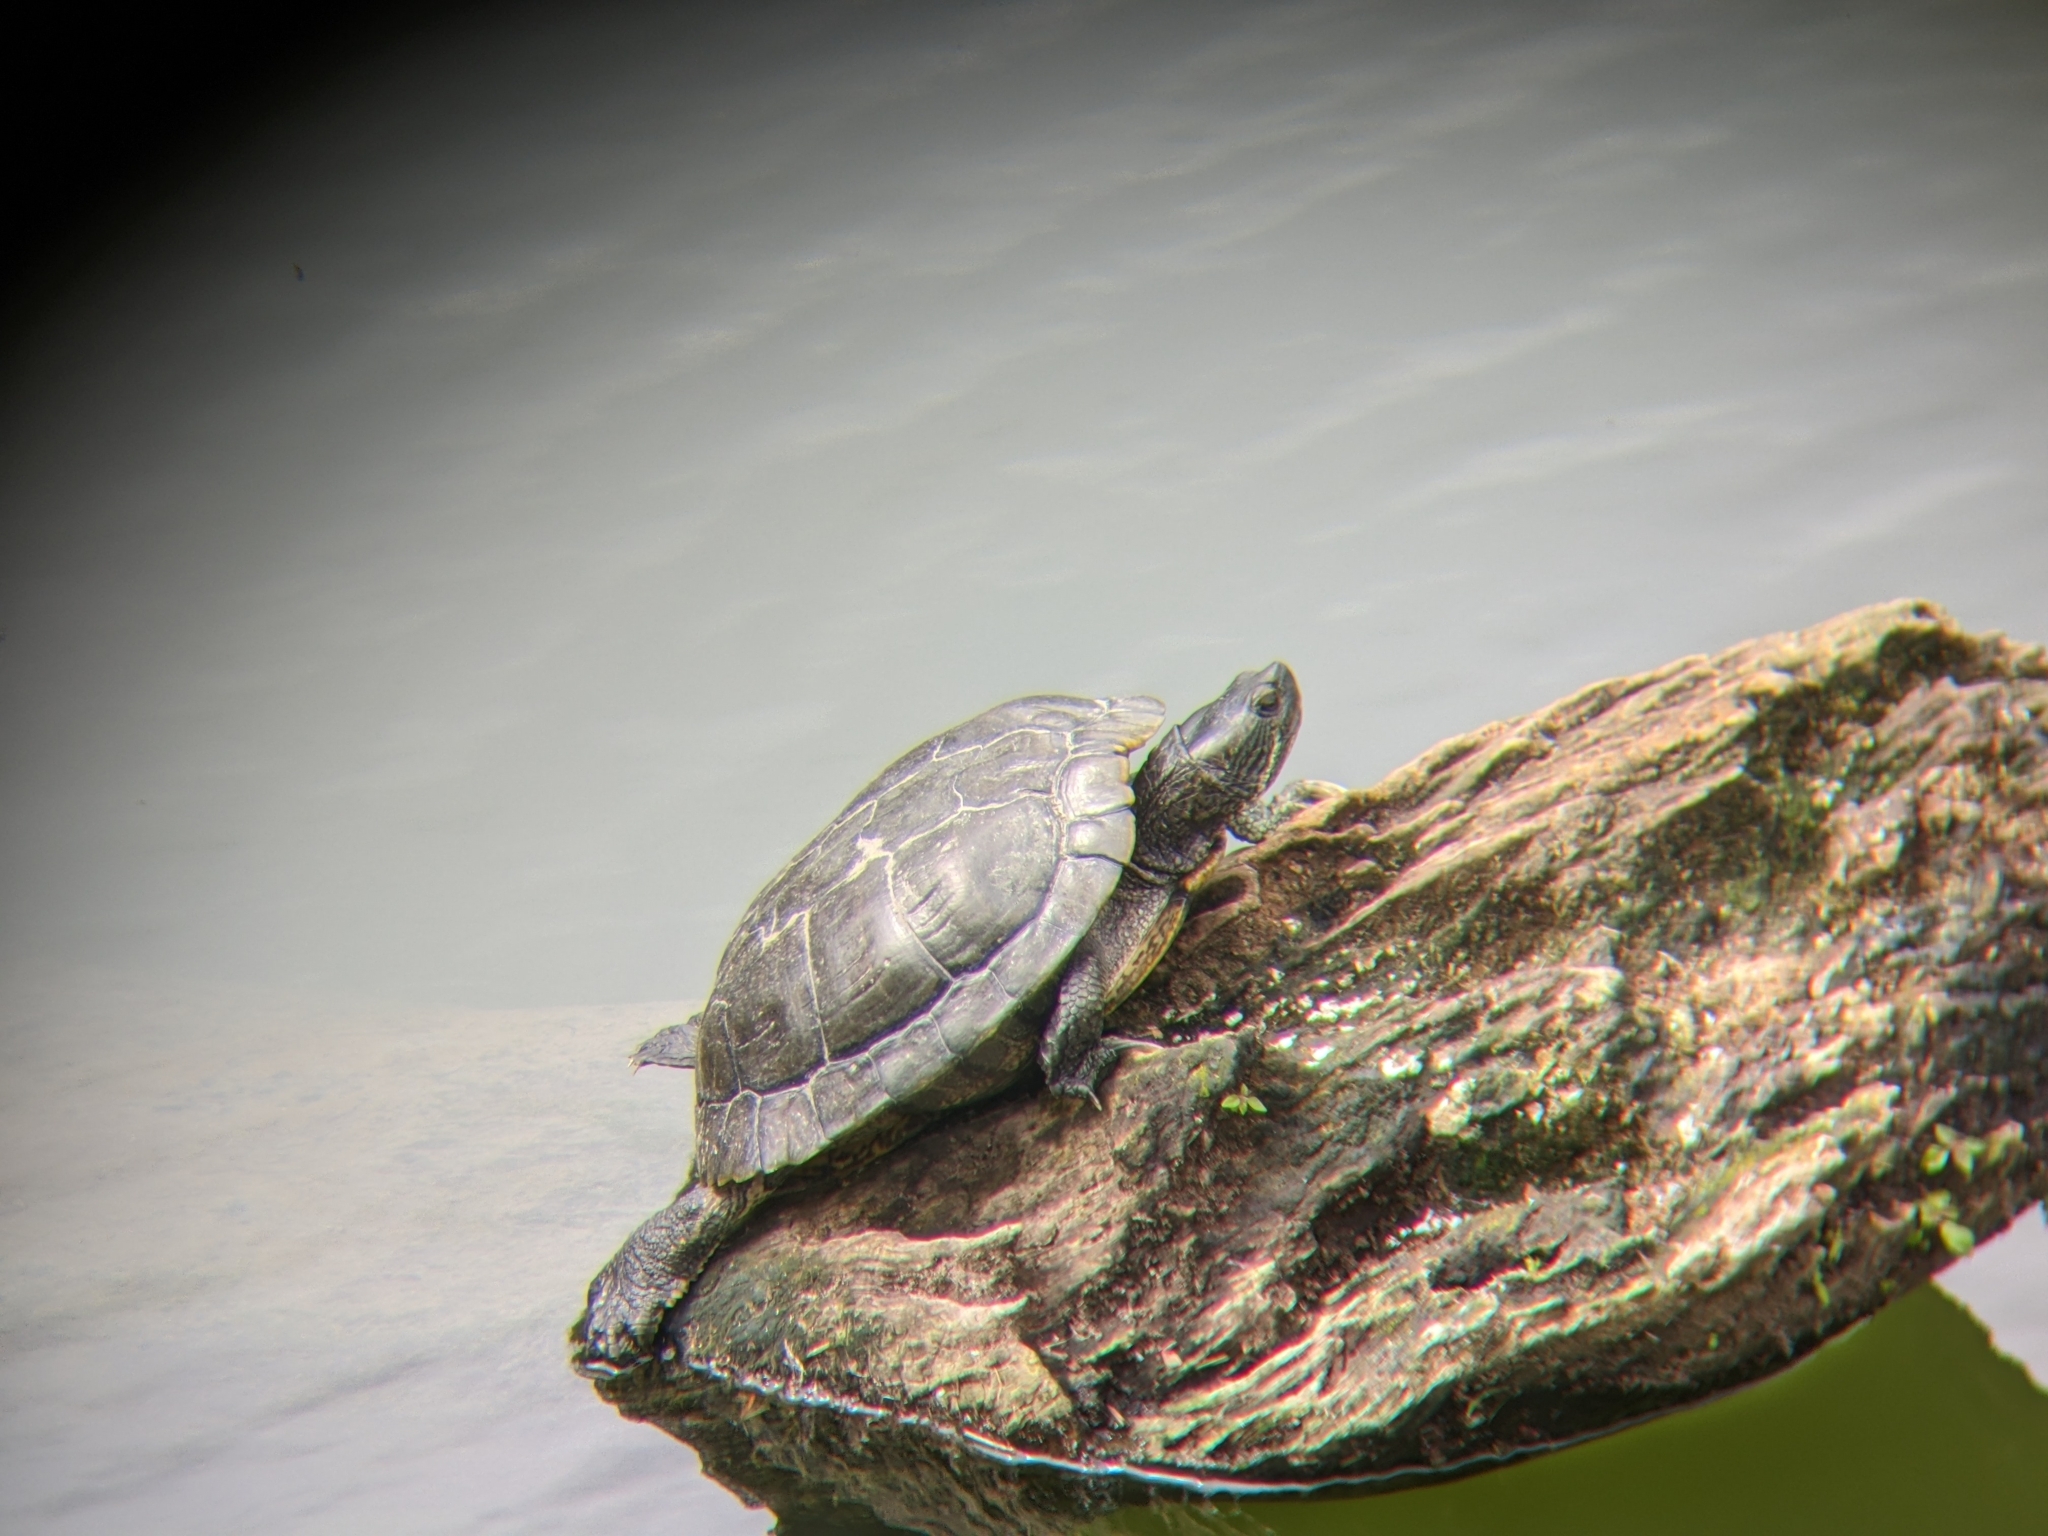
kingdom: Animalia
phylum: Chordata
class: Testudines
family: Emydidae
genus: Trachemys
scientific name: Trachemys scripta
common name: Slider
